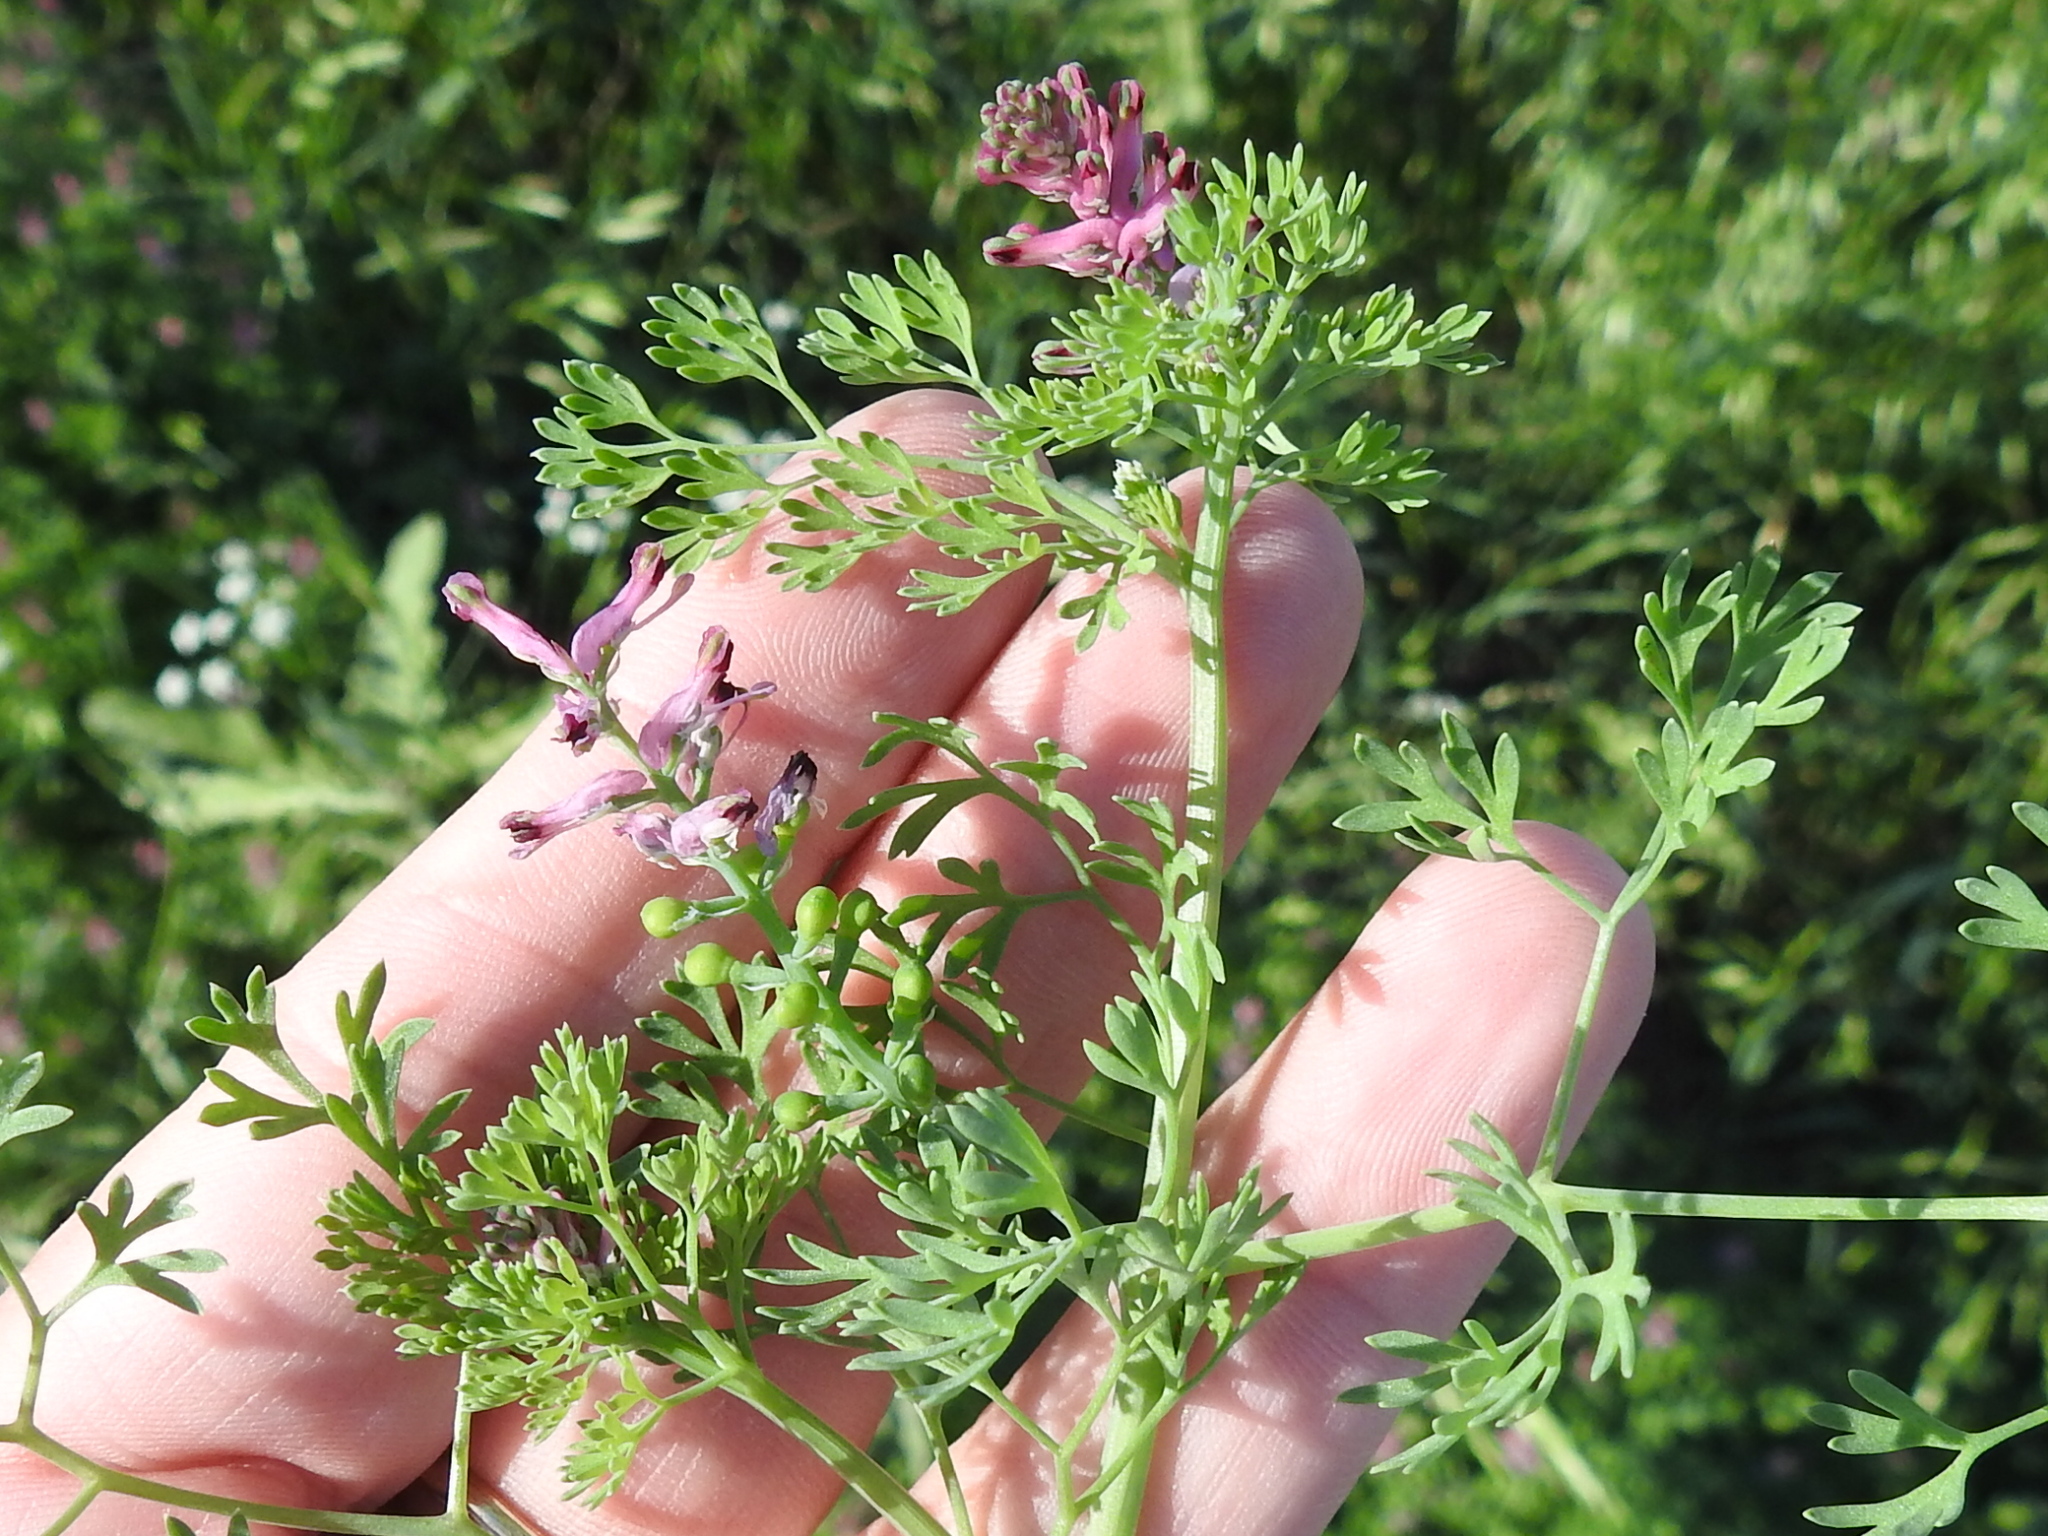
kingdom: Plantae
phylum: Tracheophyta
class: Magnoliopsida
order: Ranunculales
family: Papaveraceae
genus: Fumaria
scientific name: Fumaria officinalis
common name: Common fumitory
